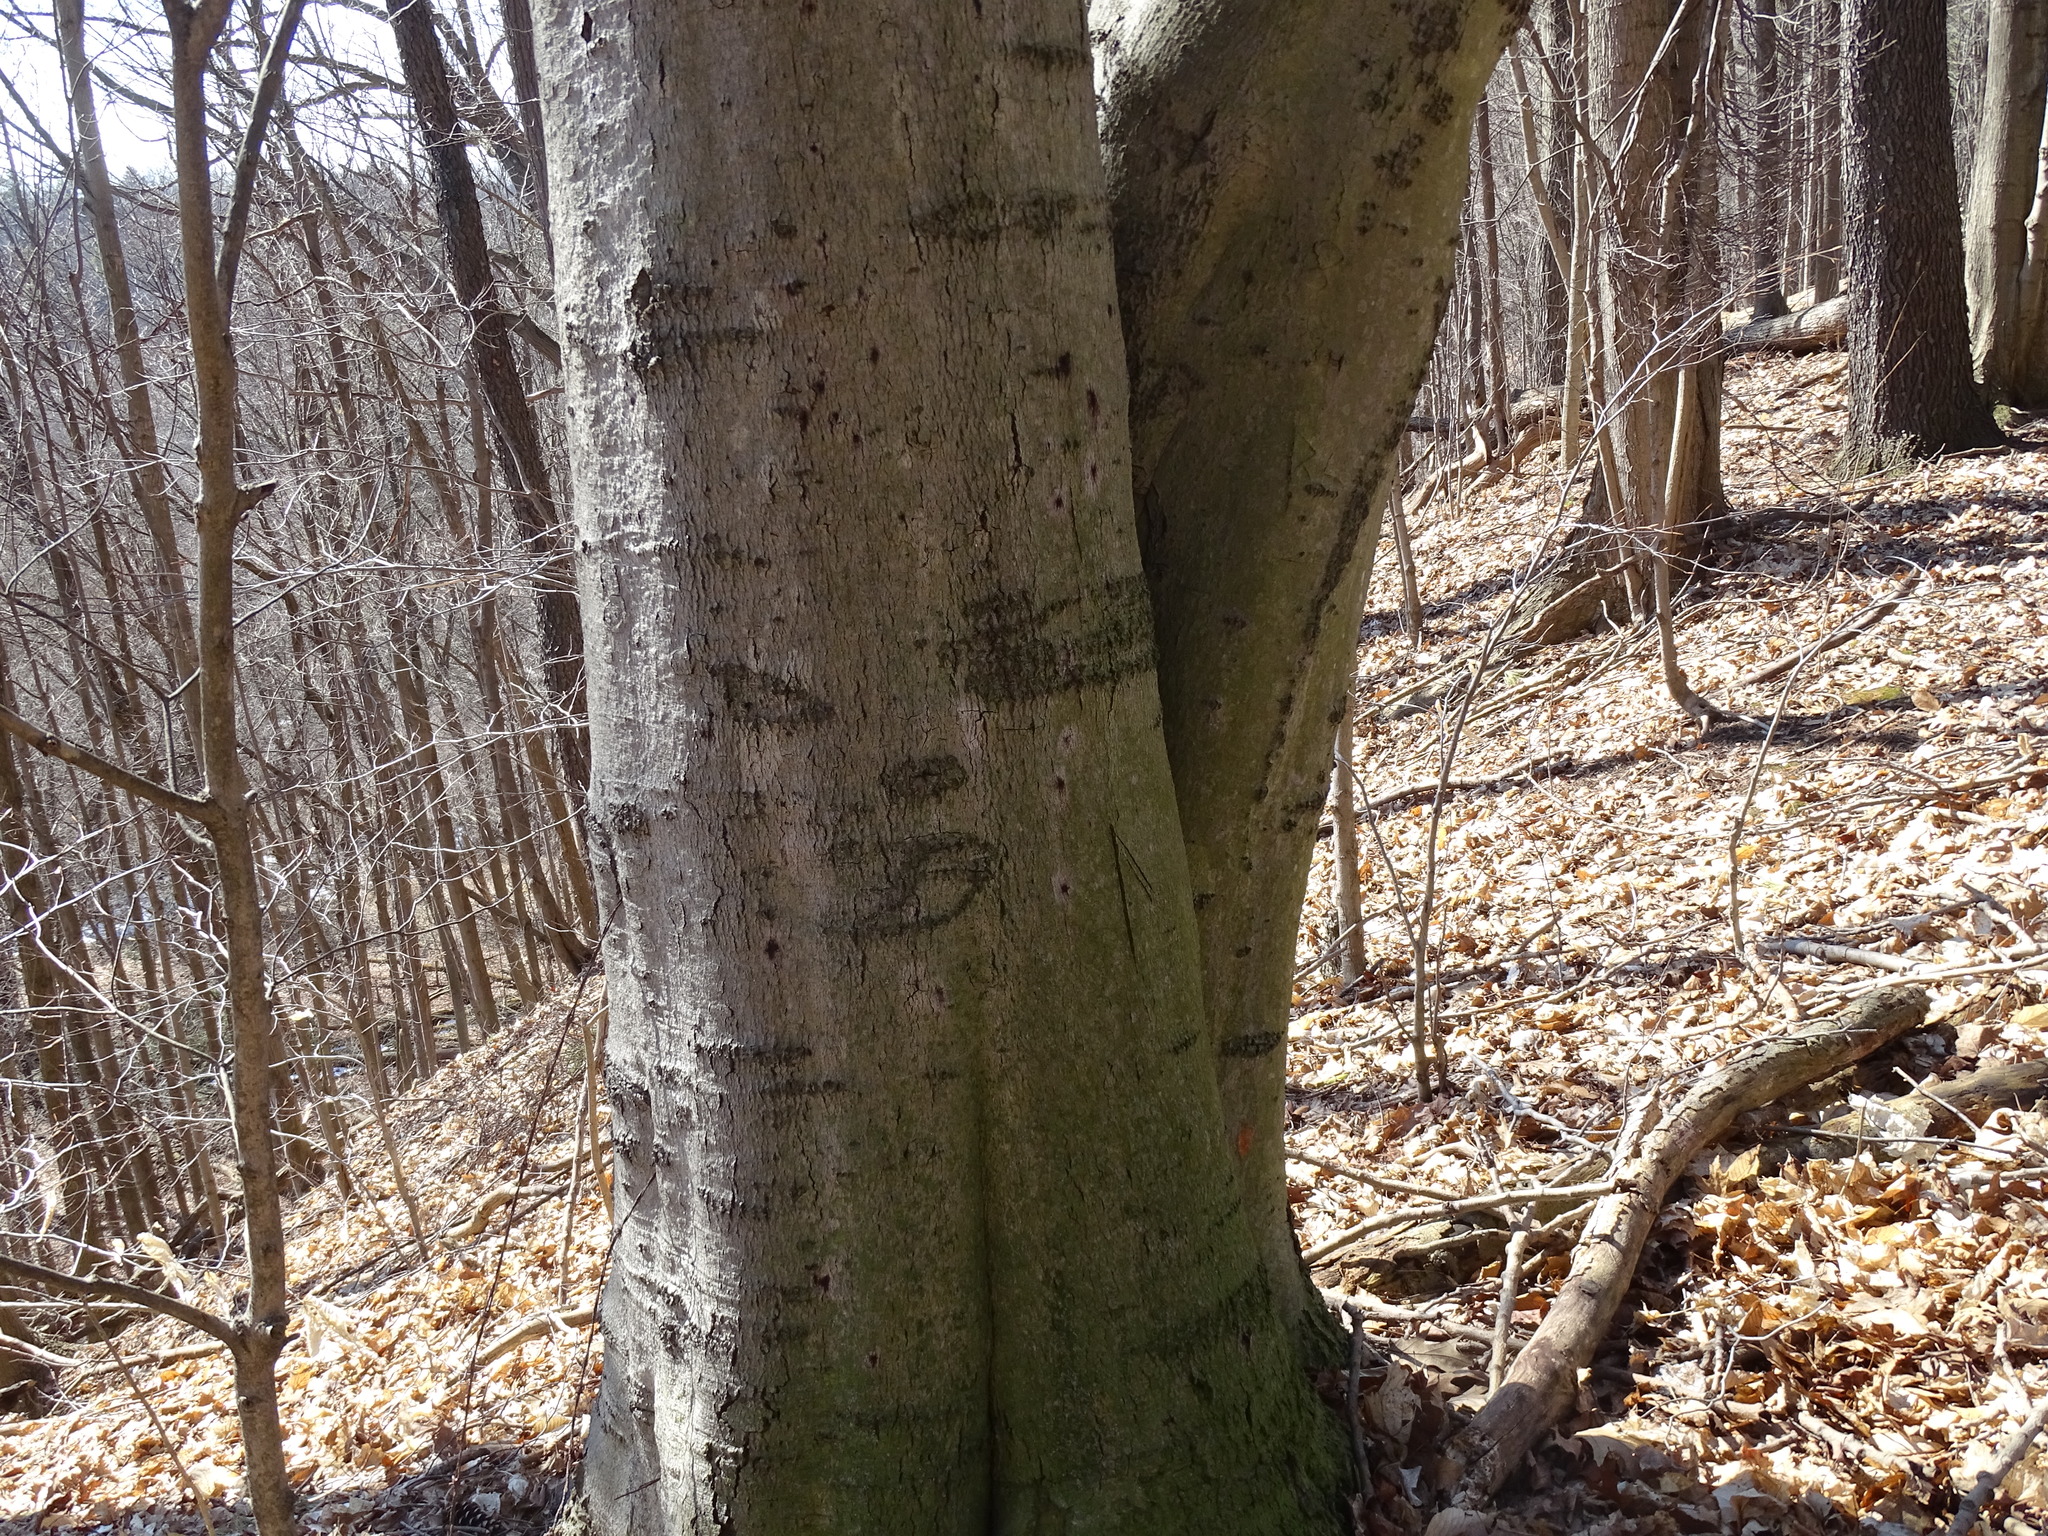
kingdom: Plantae
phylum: Tracheophyta
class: Magnoliopsida
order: Fagales
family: Fagaceae
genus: Fagus
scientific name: Fagus grandifolia
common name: American beech
